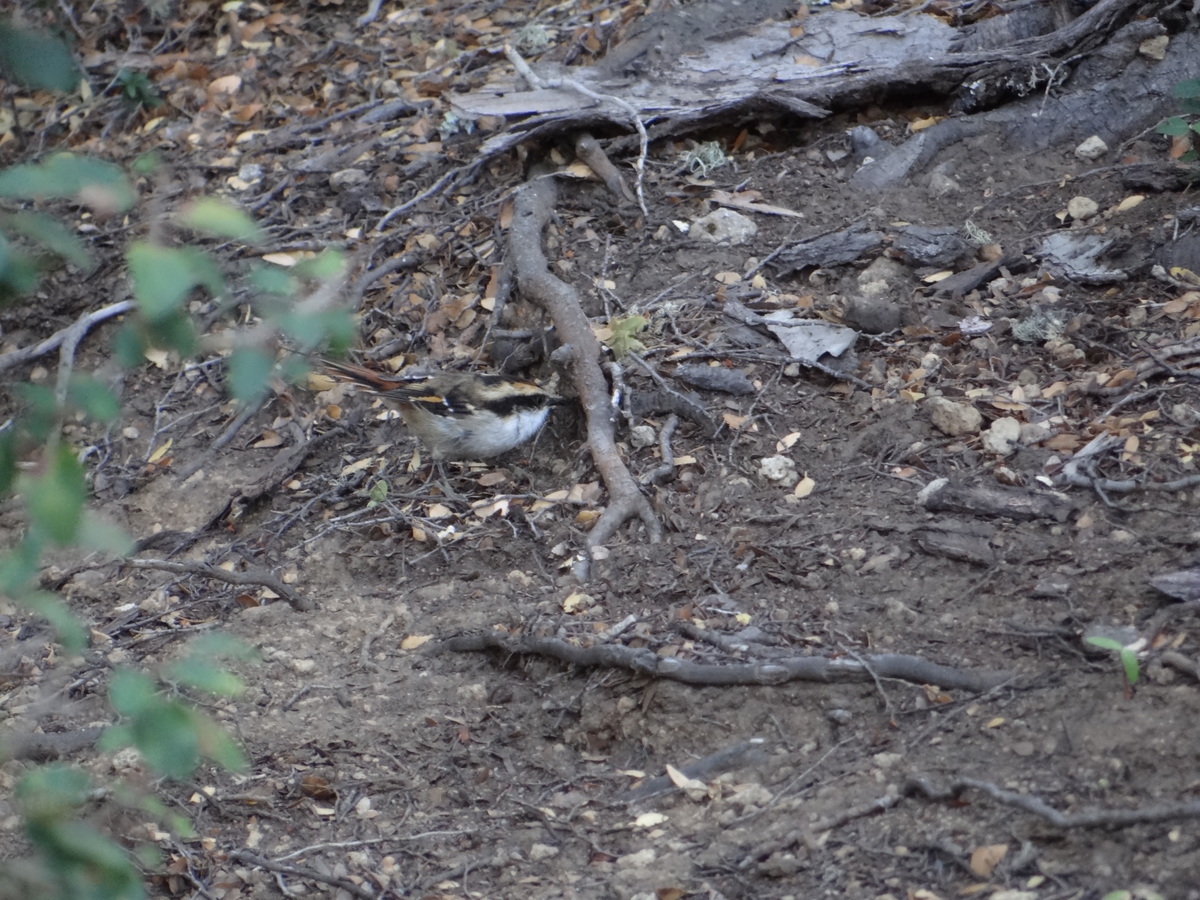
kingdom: Animalia
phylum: Chordata
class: Aves
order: Passeriformes
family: Furnariidae
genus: Aphrastura
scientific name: Aphrastura spinicauda
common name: Thorn-tailed rayadito
